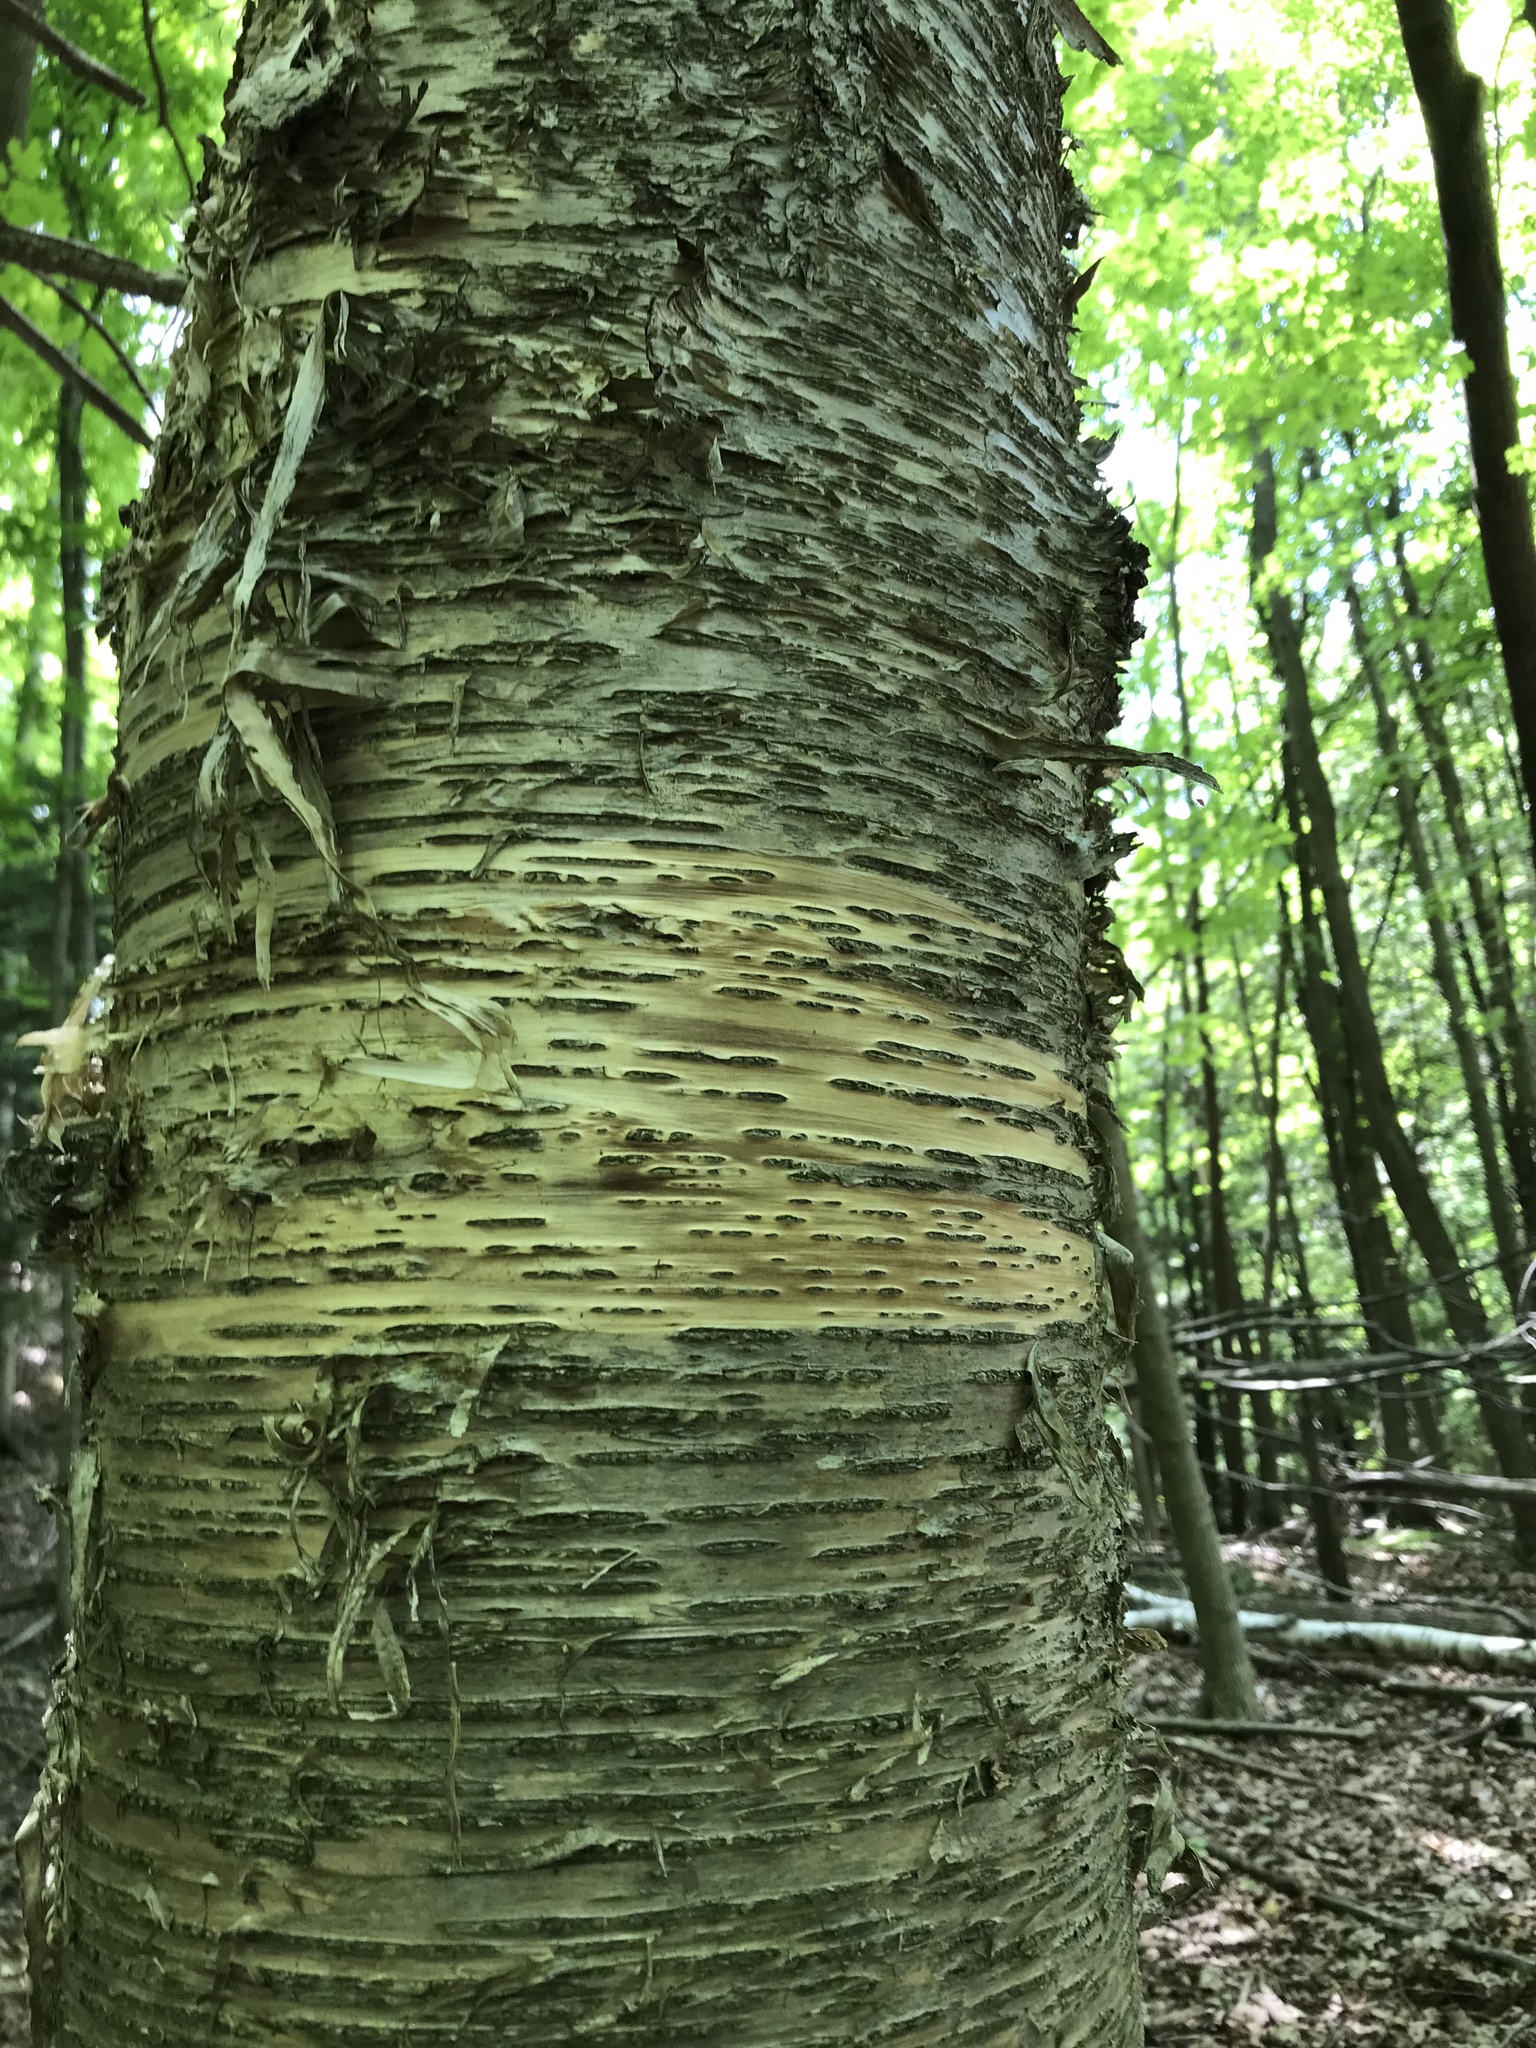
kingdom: Plantae
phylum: Tracheophyta
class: Magnoliopsida
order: Fagales
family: Betulaceae
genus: Betula
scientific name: Betula alleghaniensis
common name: Yellow birch
